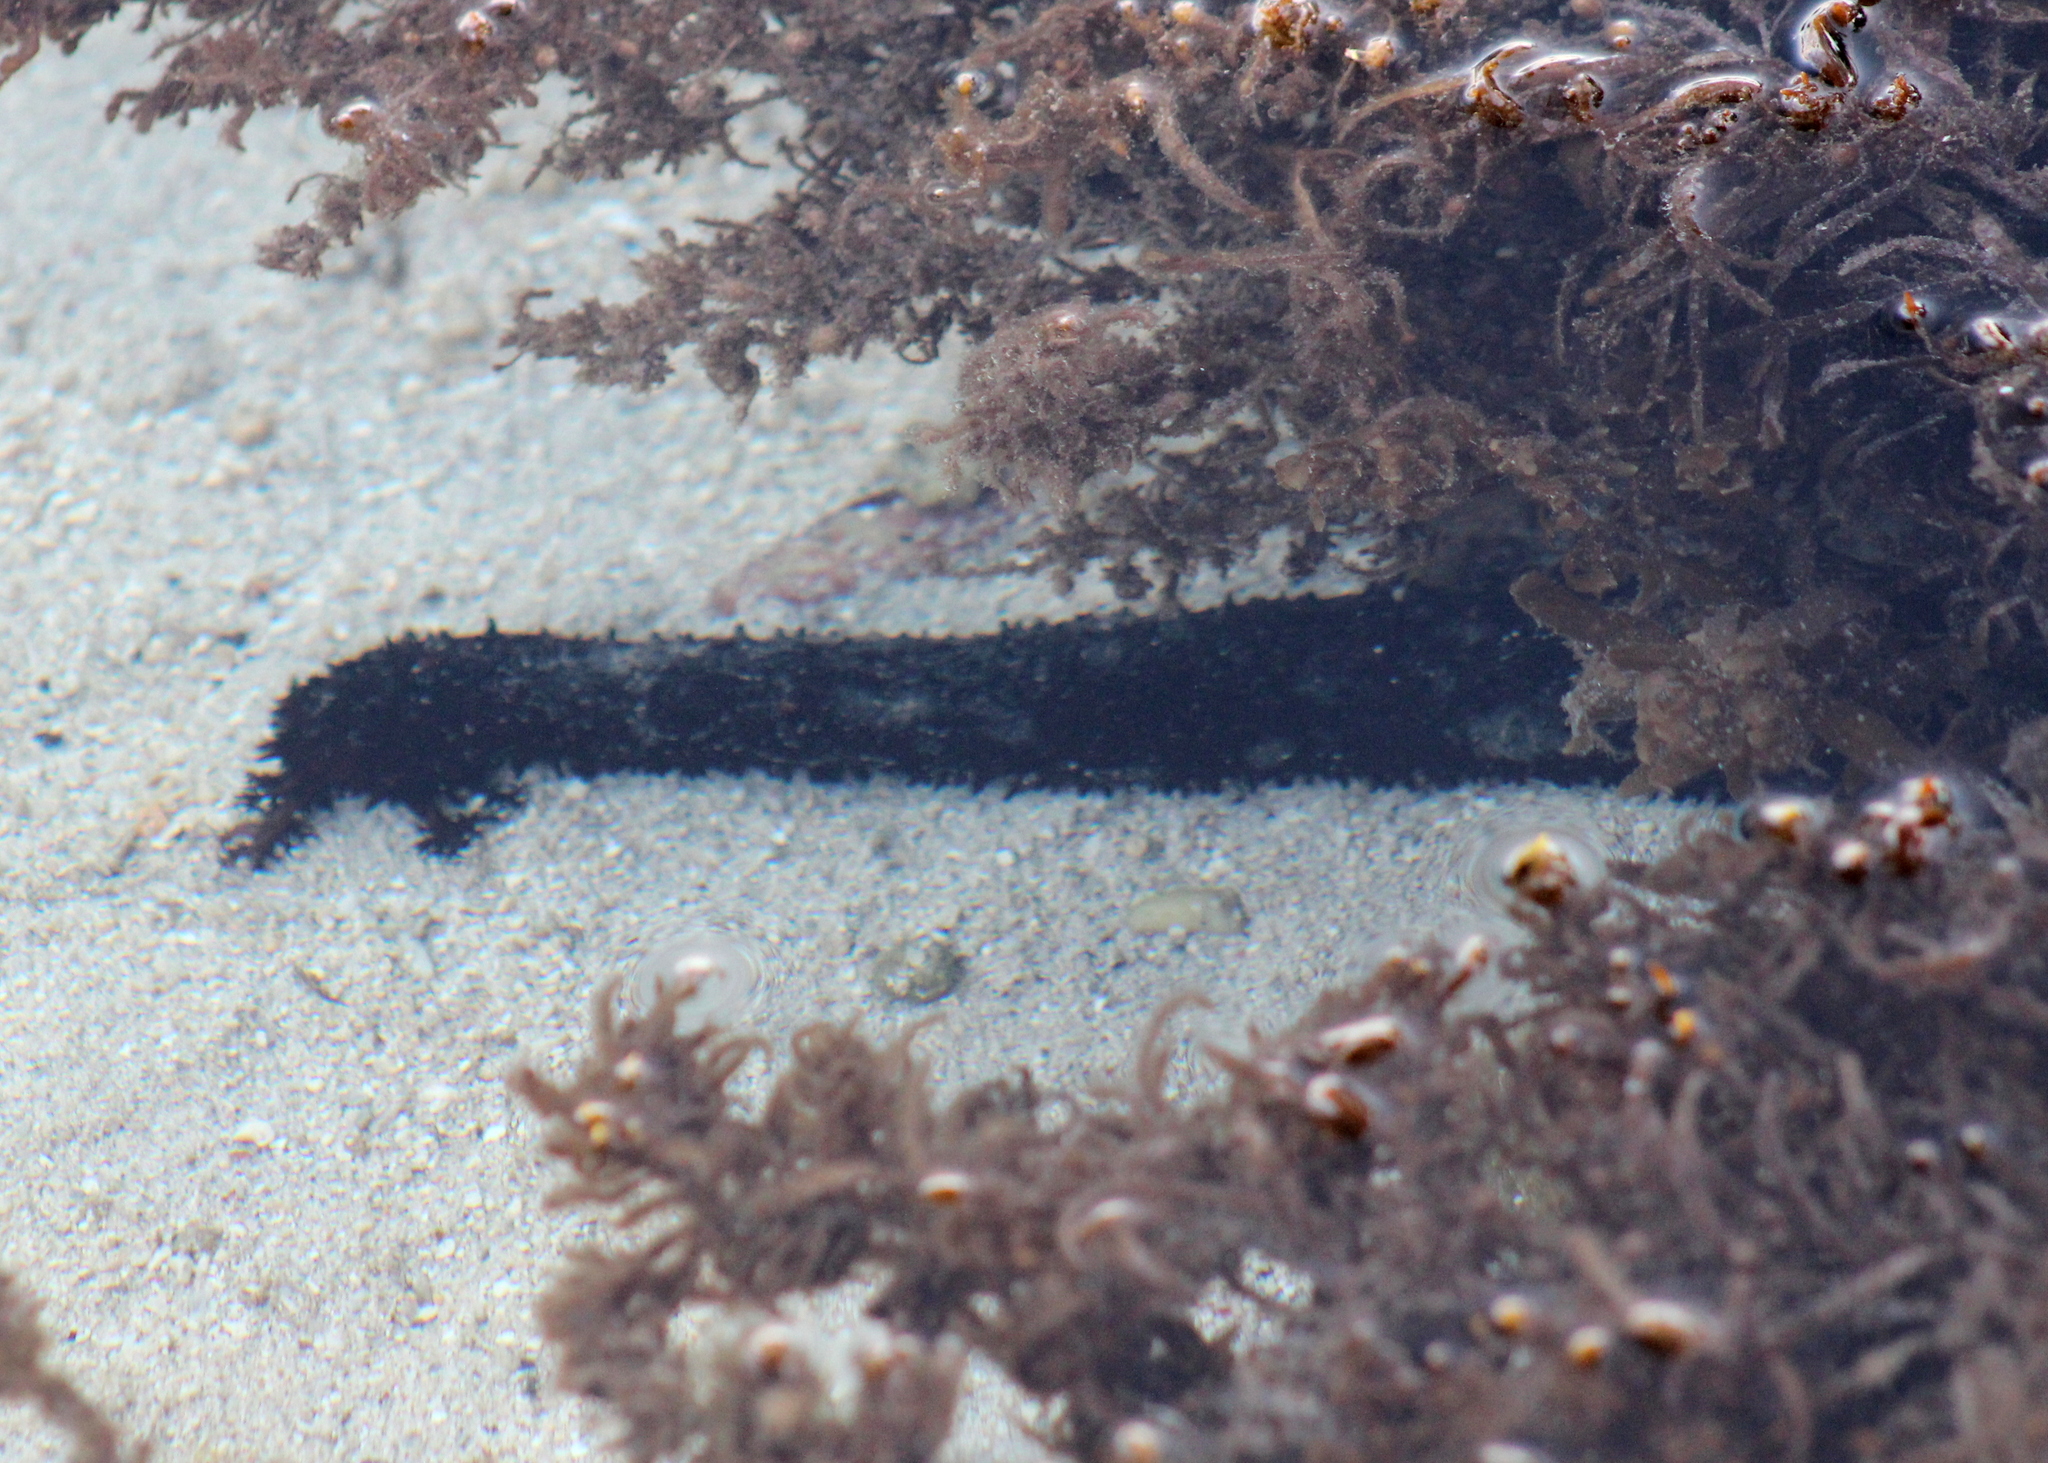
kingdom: Animalia
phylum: Echinodermata
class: Holothuroidea
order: Holothuriida
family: Holothuriidae
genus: Holothuria
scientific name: Holothuria leucospilota
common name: White thread fish
